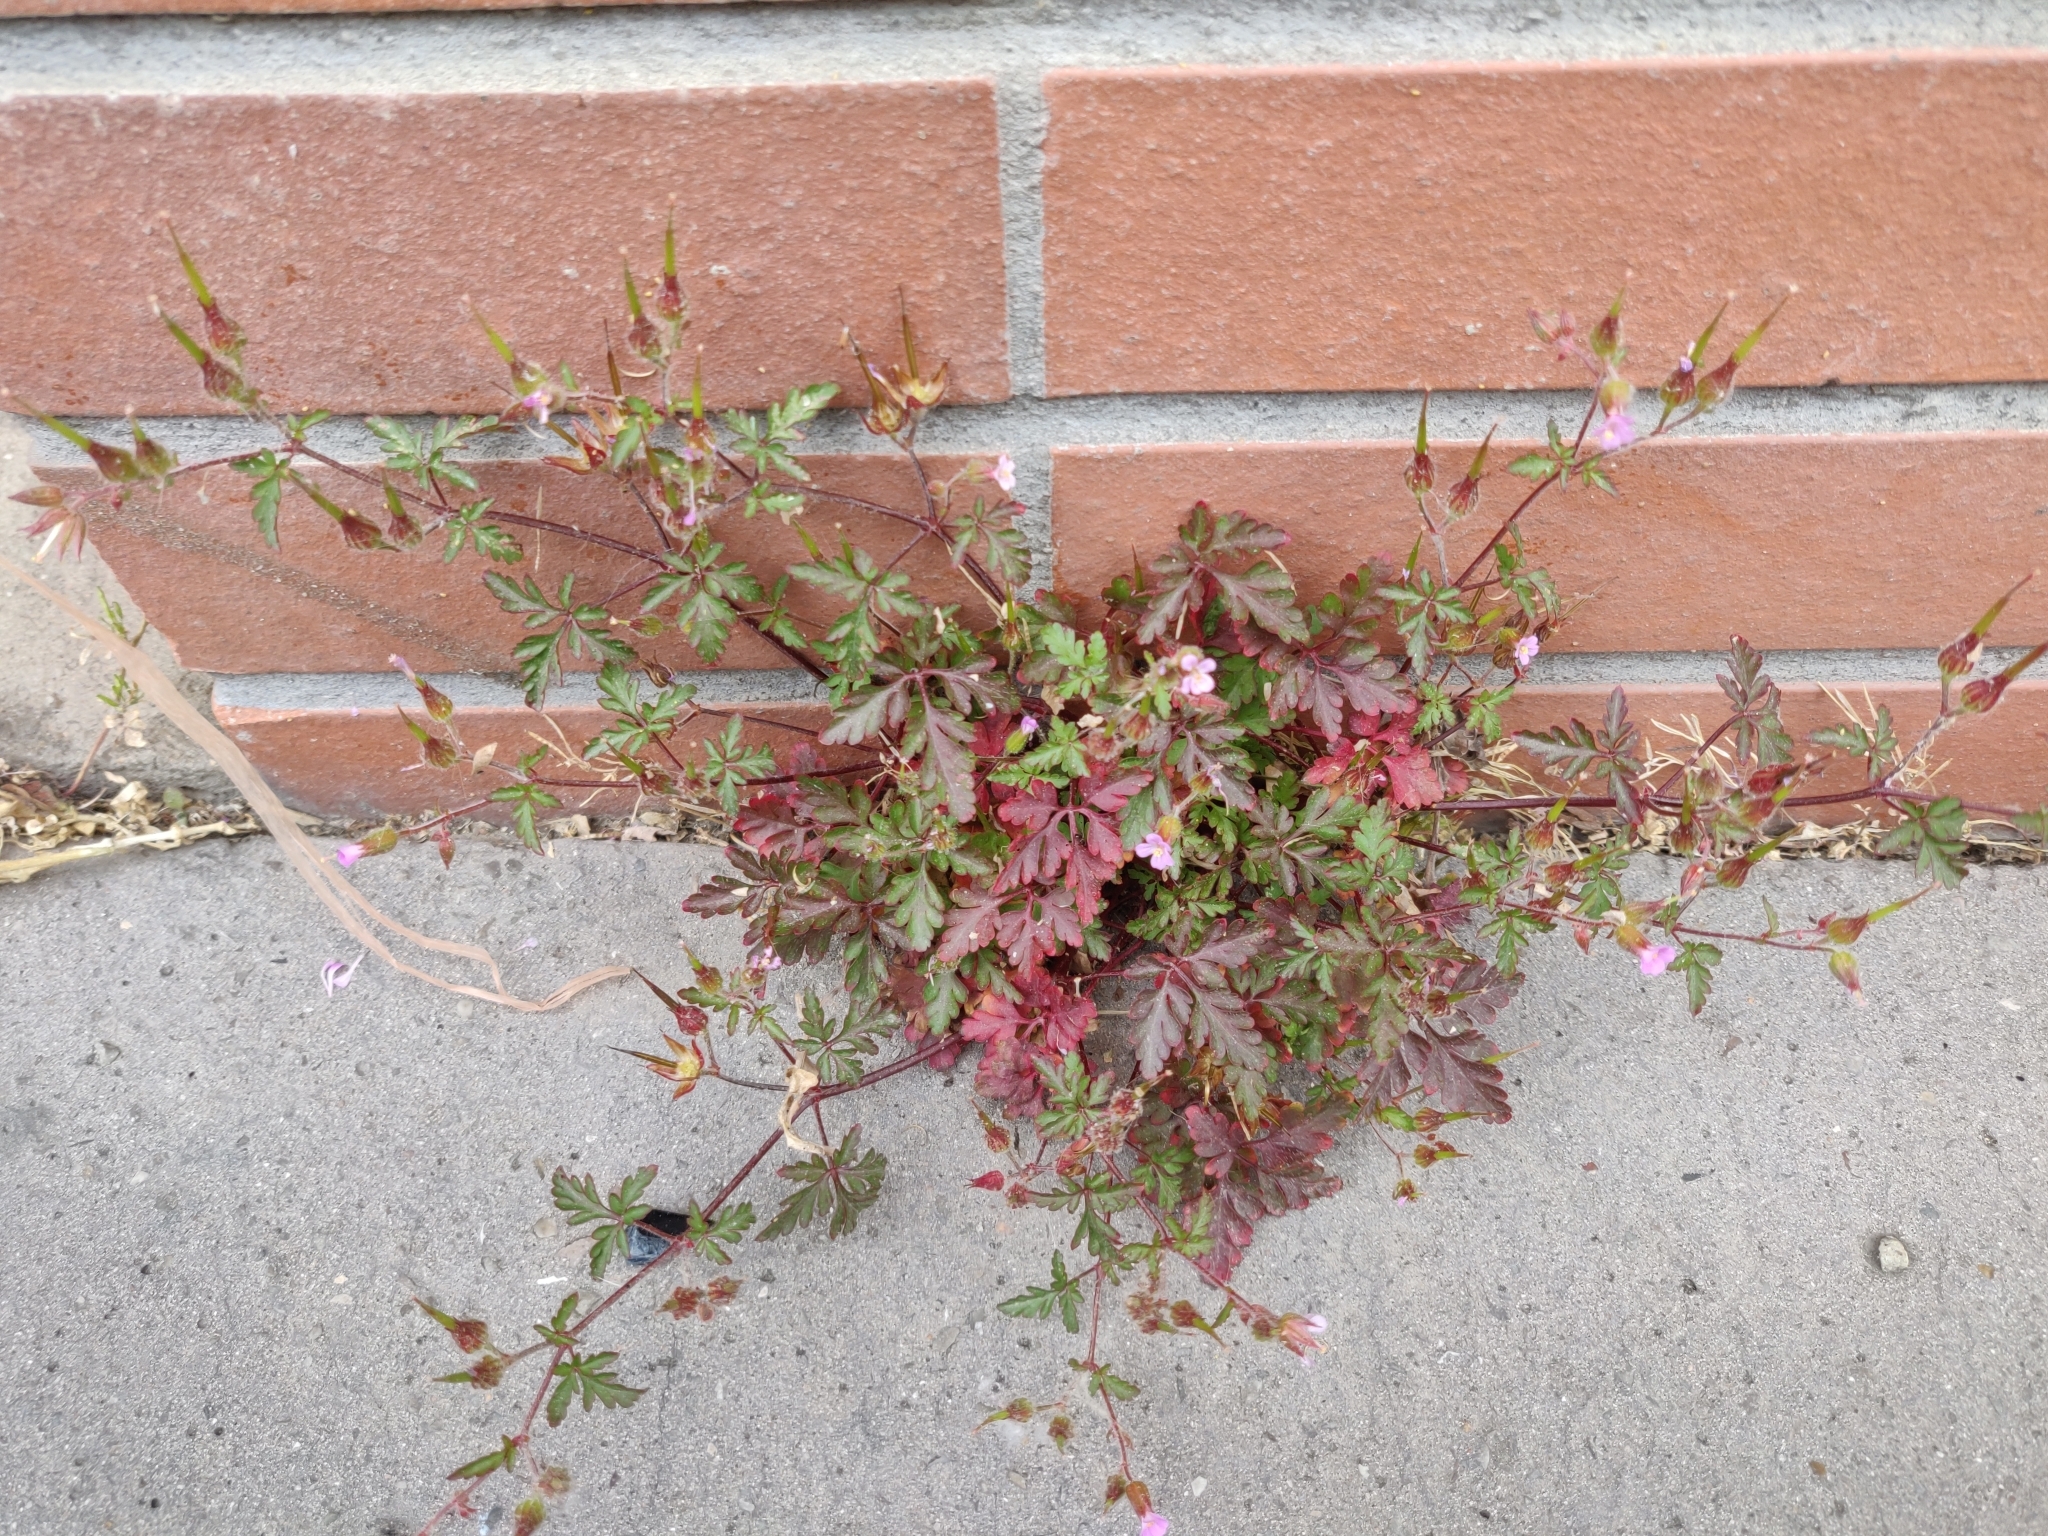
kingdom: Plantae
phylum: Tracheophyta
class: Magnoliopsida
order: Geraniales
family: Geraniaceae
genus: Geranium
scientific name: Geranium purpureum
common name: Little-robin
